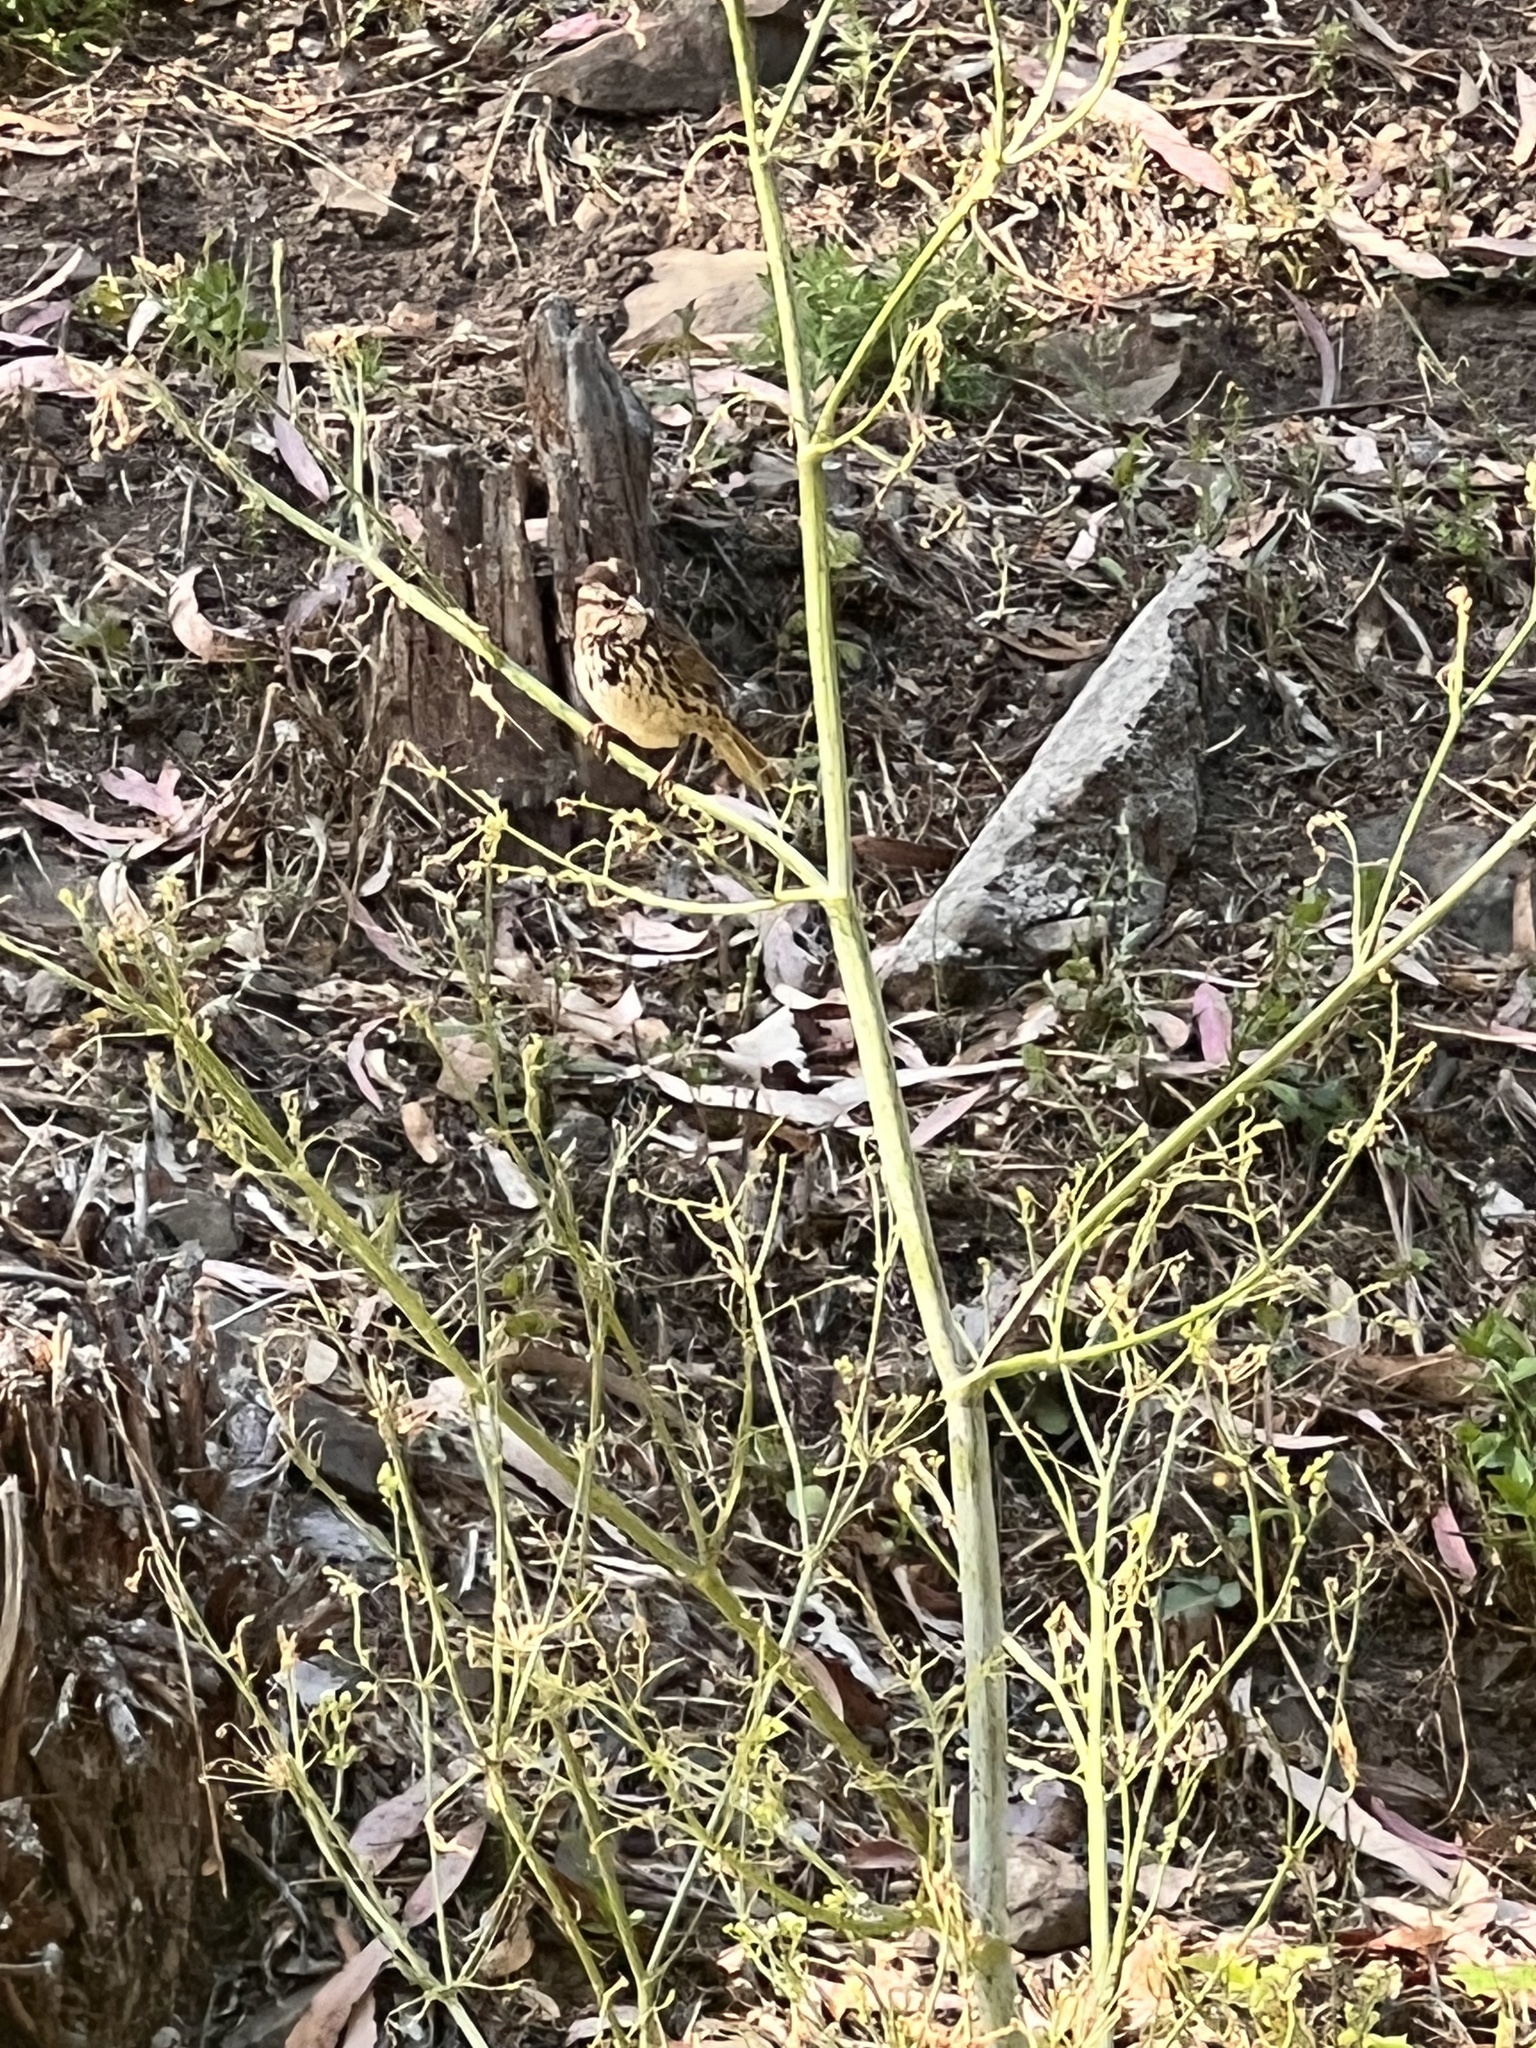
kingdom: Animalia
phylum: Chordata
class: Aves
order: Passeriformes
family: Passerellidae
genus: Melospiza
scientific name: Melospiza melodia
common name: Song sparrow
